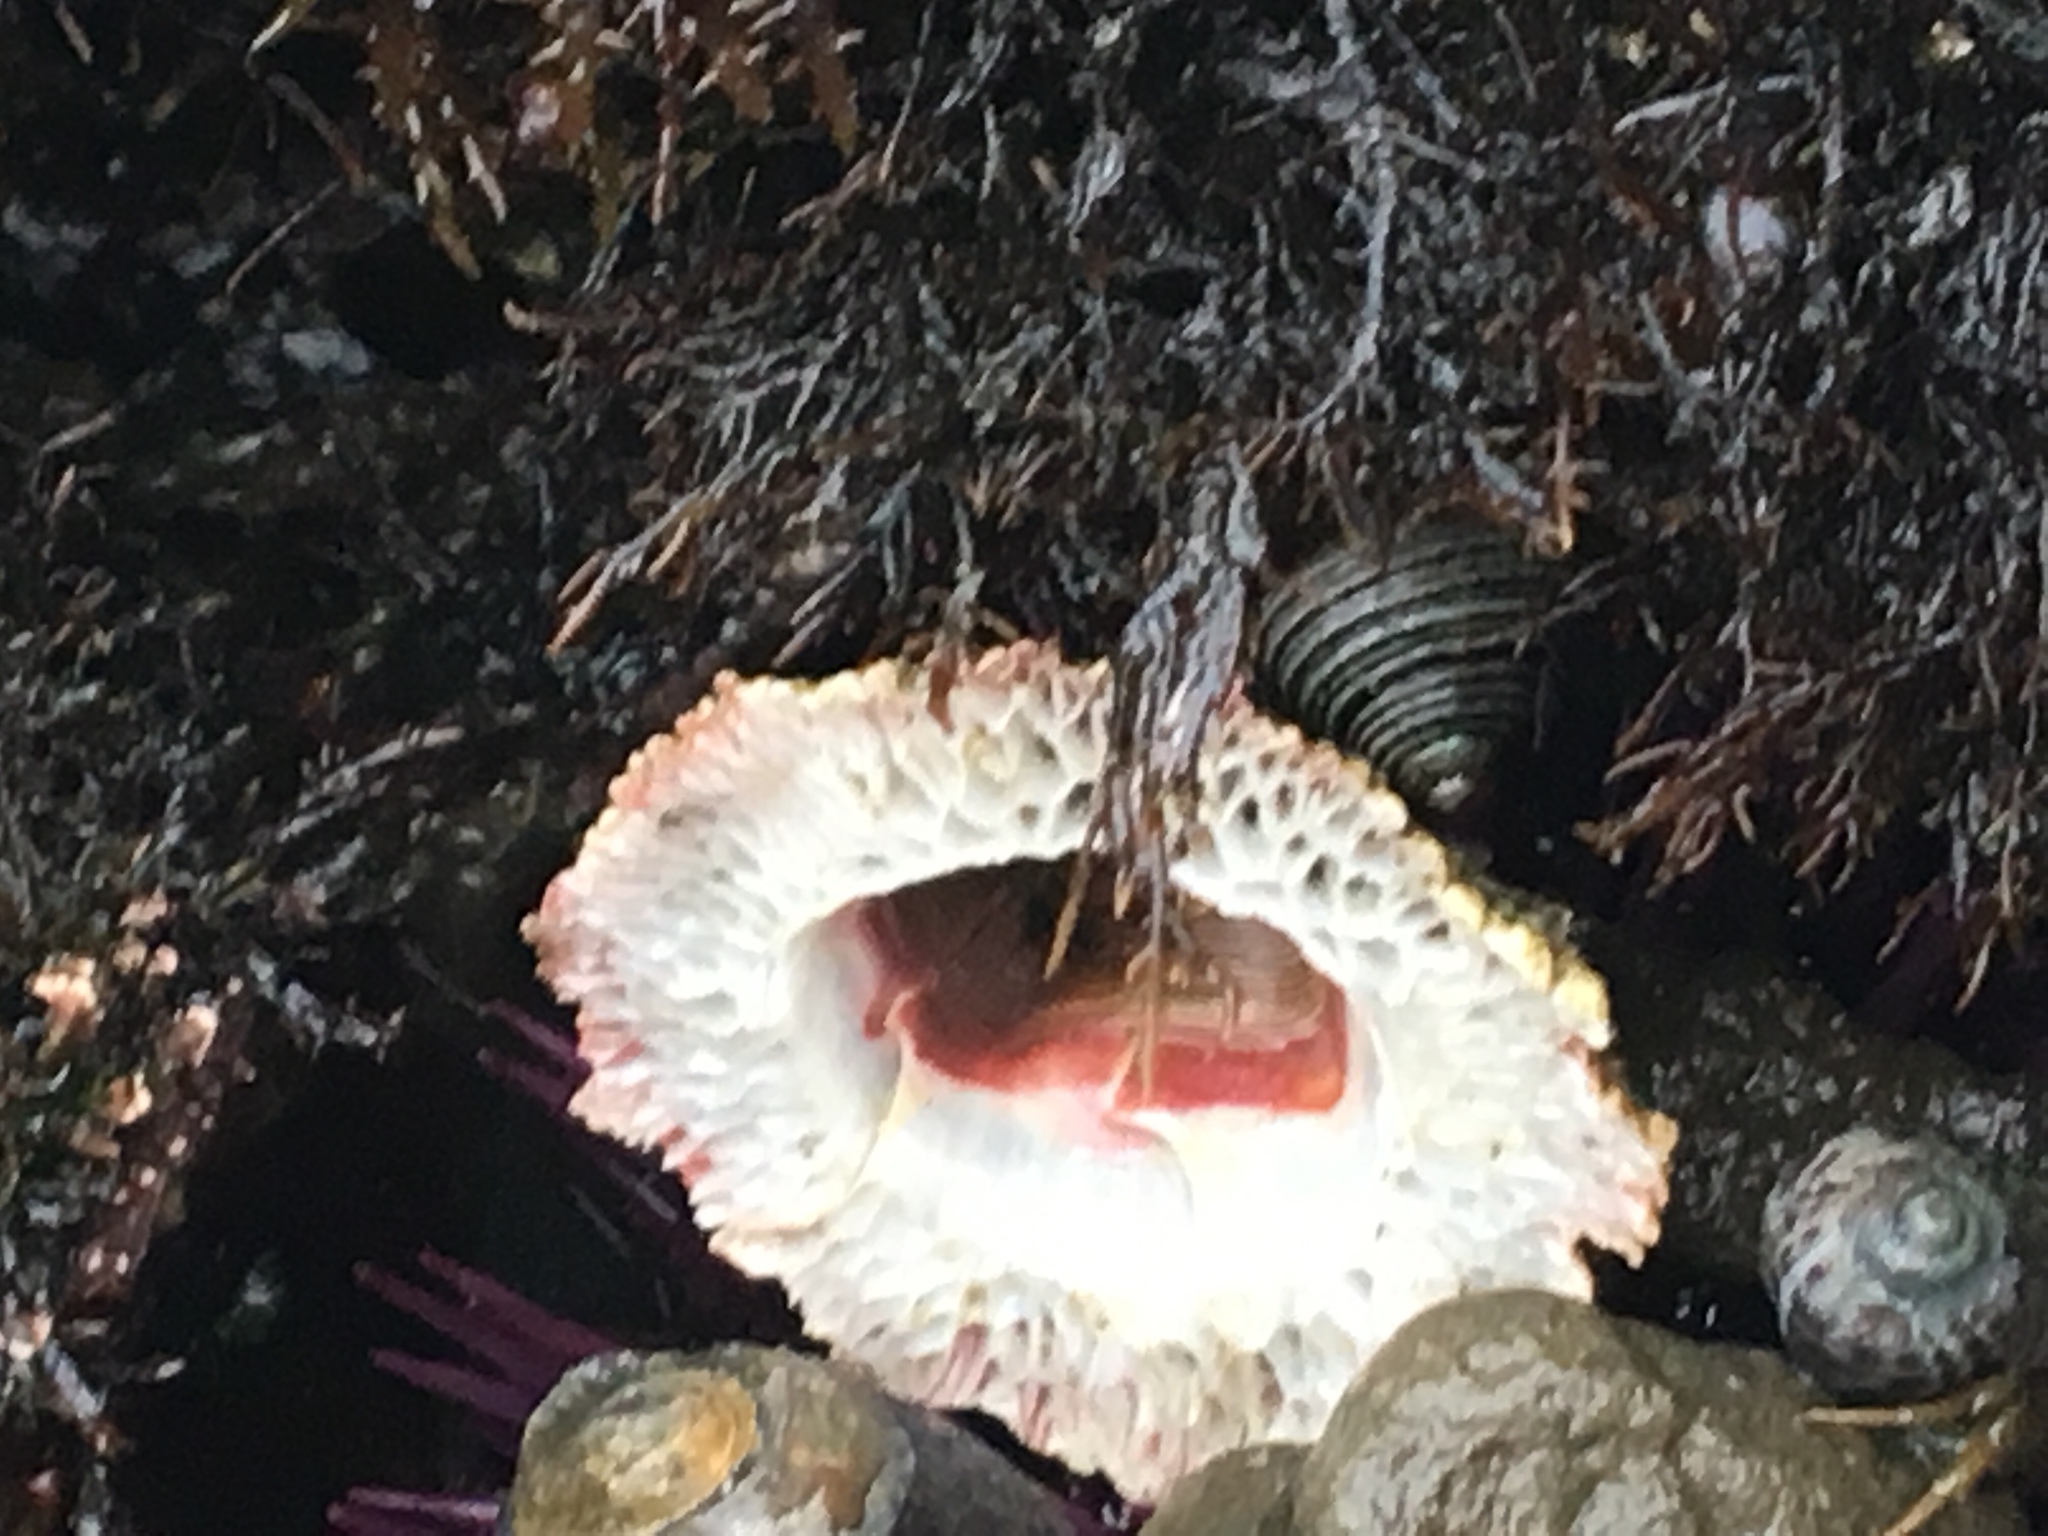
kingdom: Animalia
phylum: Arthropoda
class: Maxillopoda
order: Sessilia
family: Tetraclitidae
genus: Tetraclita
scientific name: Tetraclita rubescens
